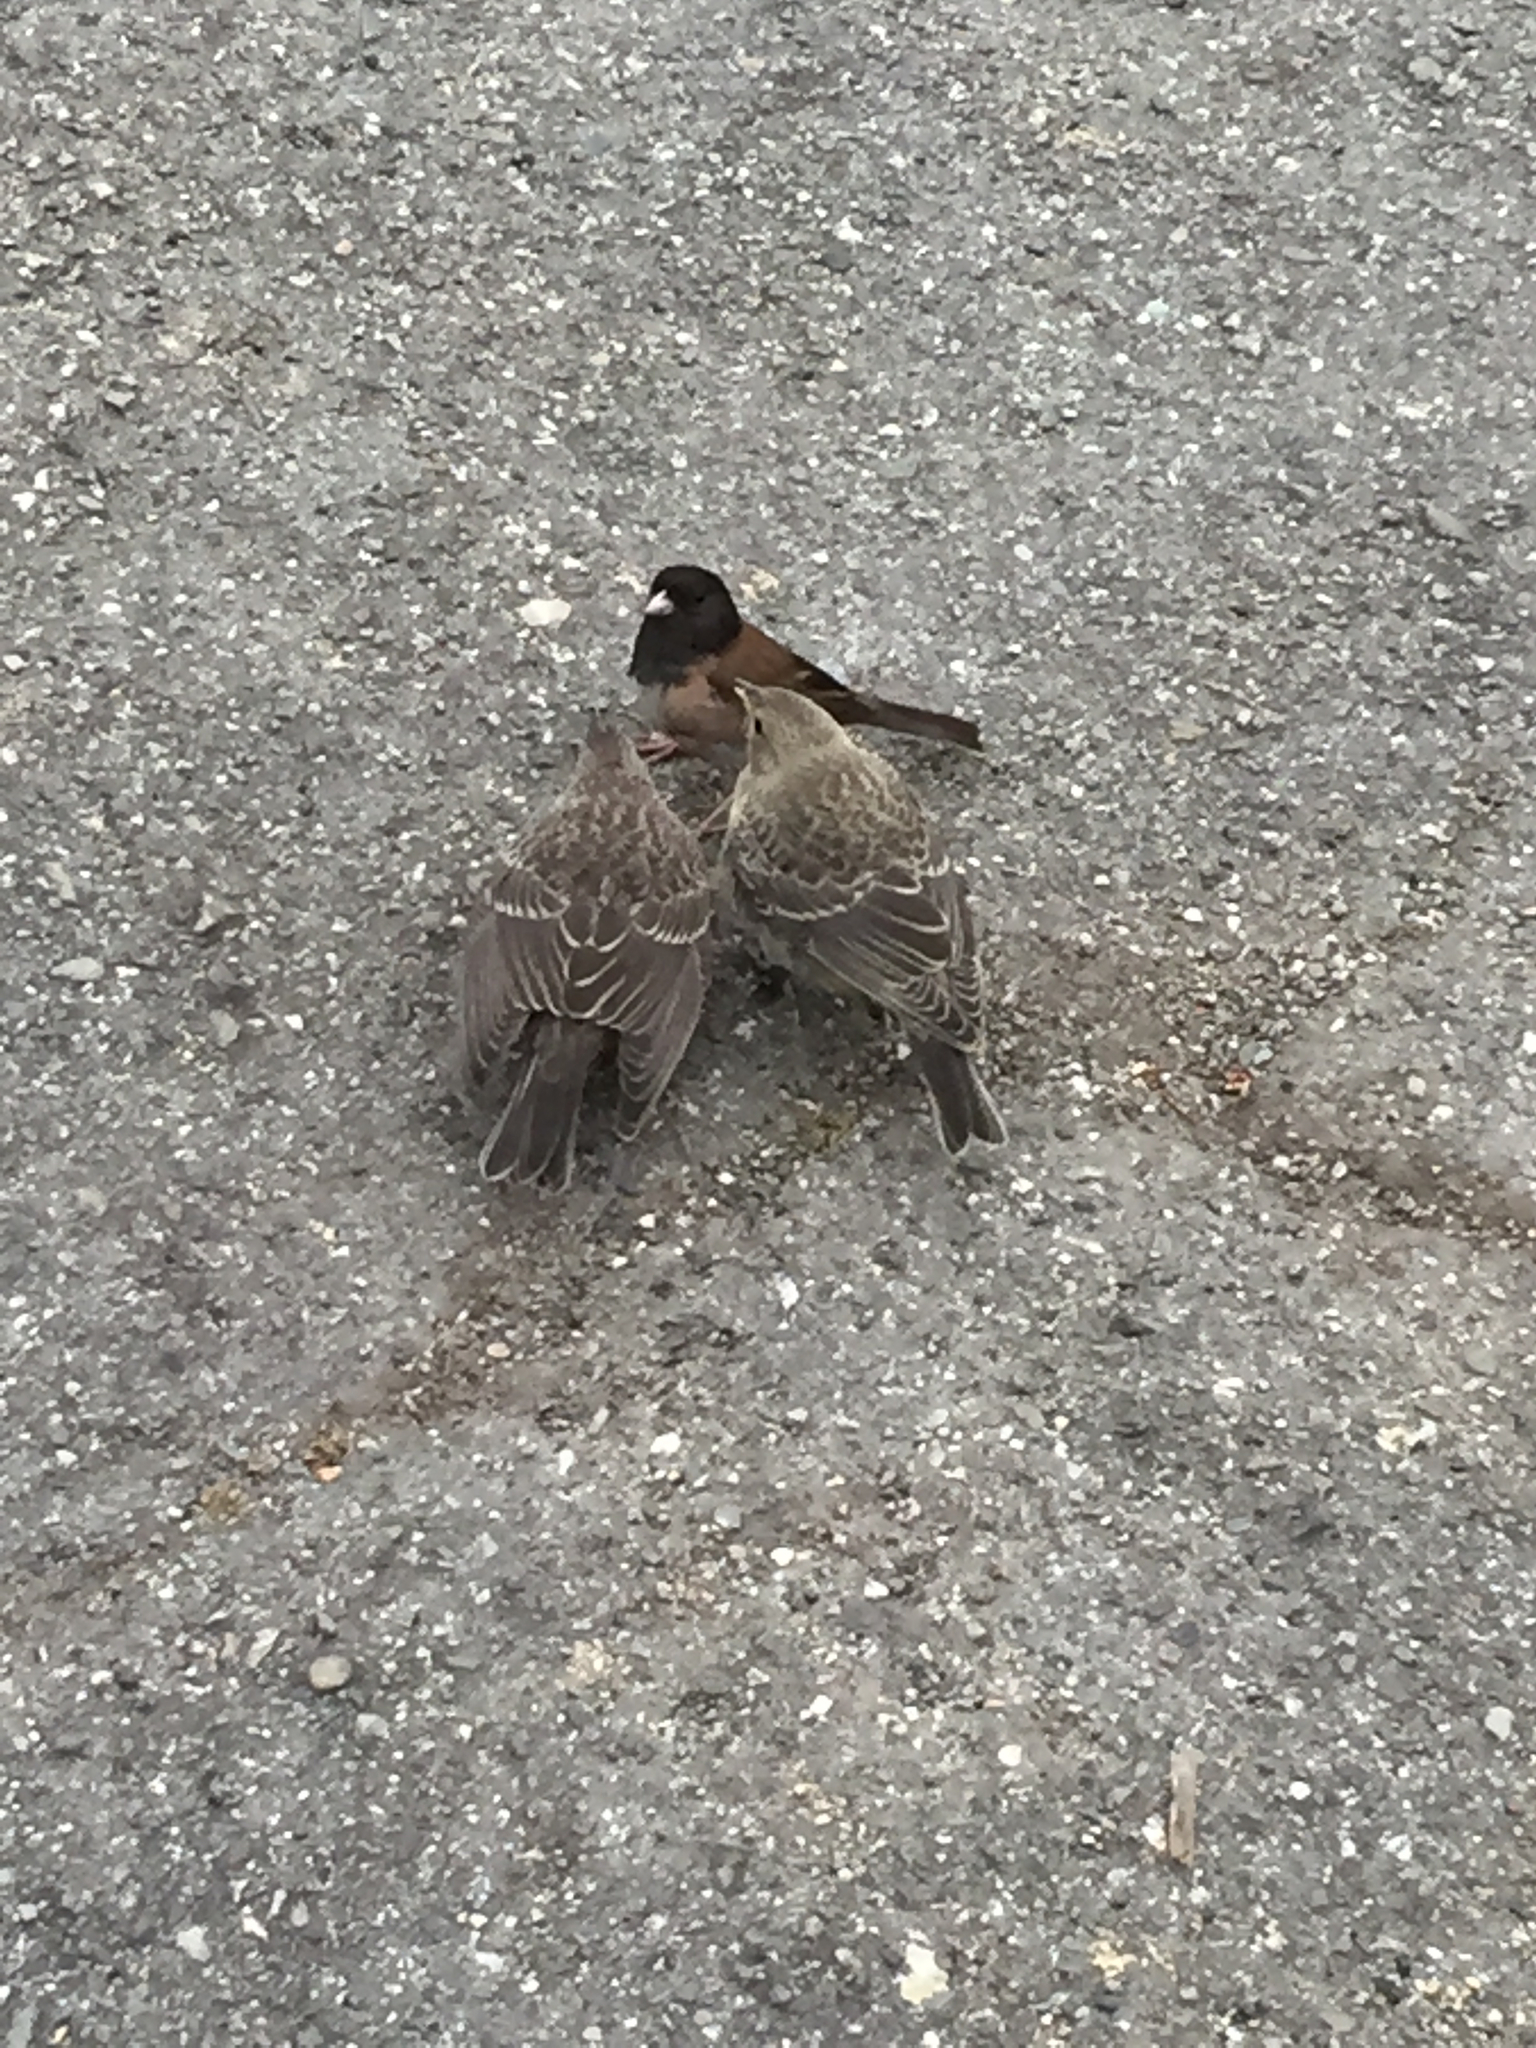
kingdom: Animalia
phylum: Chordata
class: Aves
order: Passeriformes
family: Passerellidae
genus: Junco
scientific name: Junco hyemalis
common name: Dark-eyed junco
